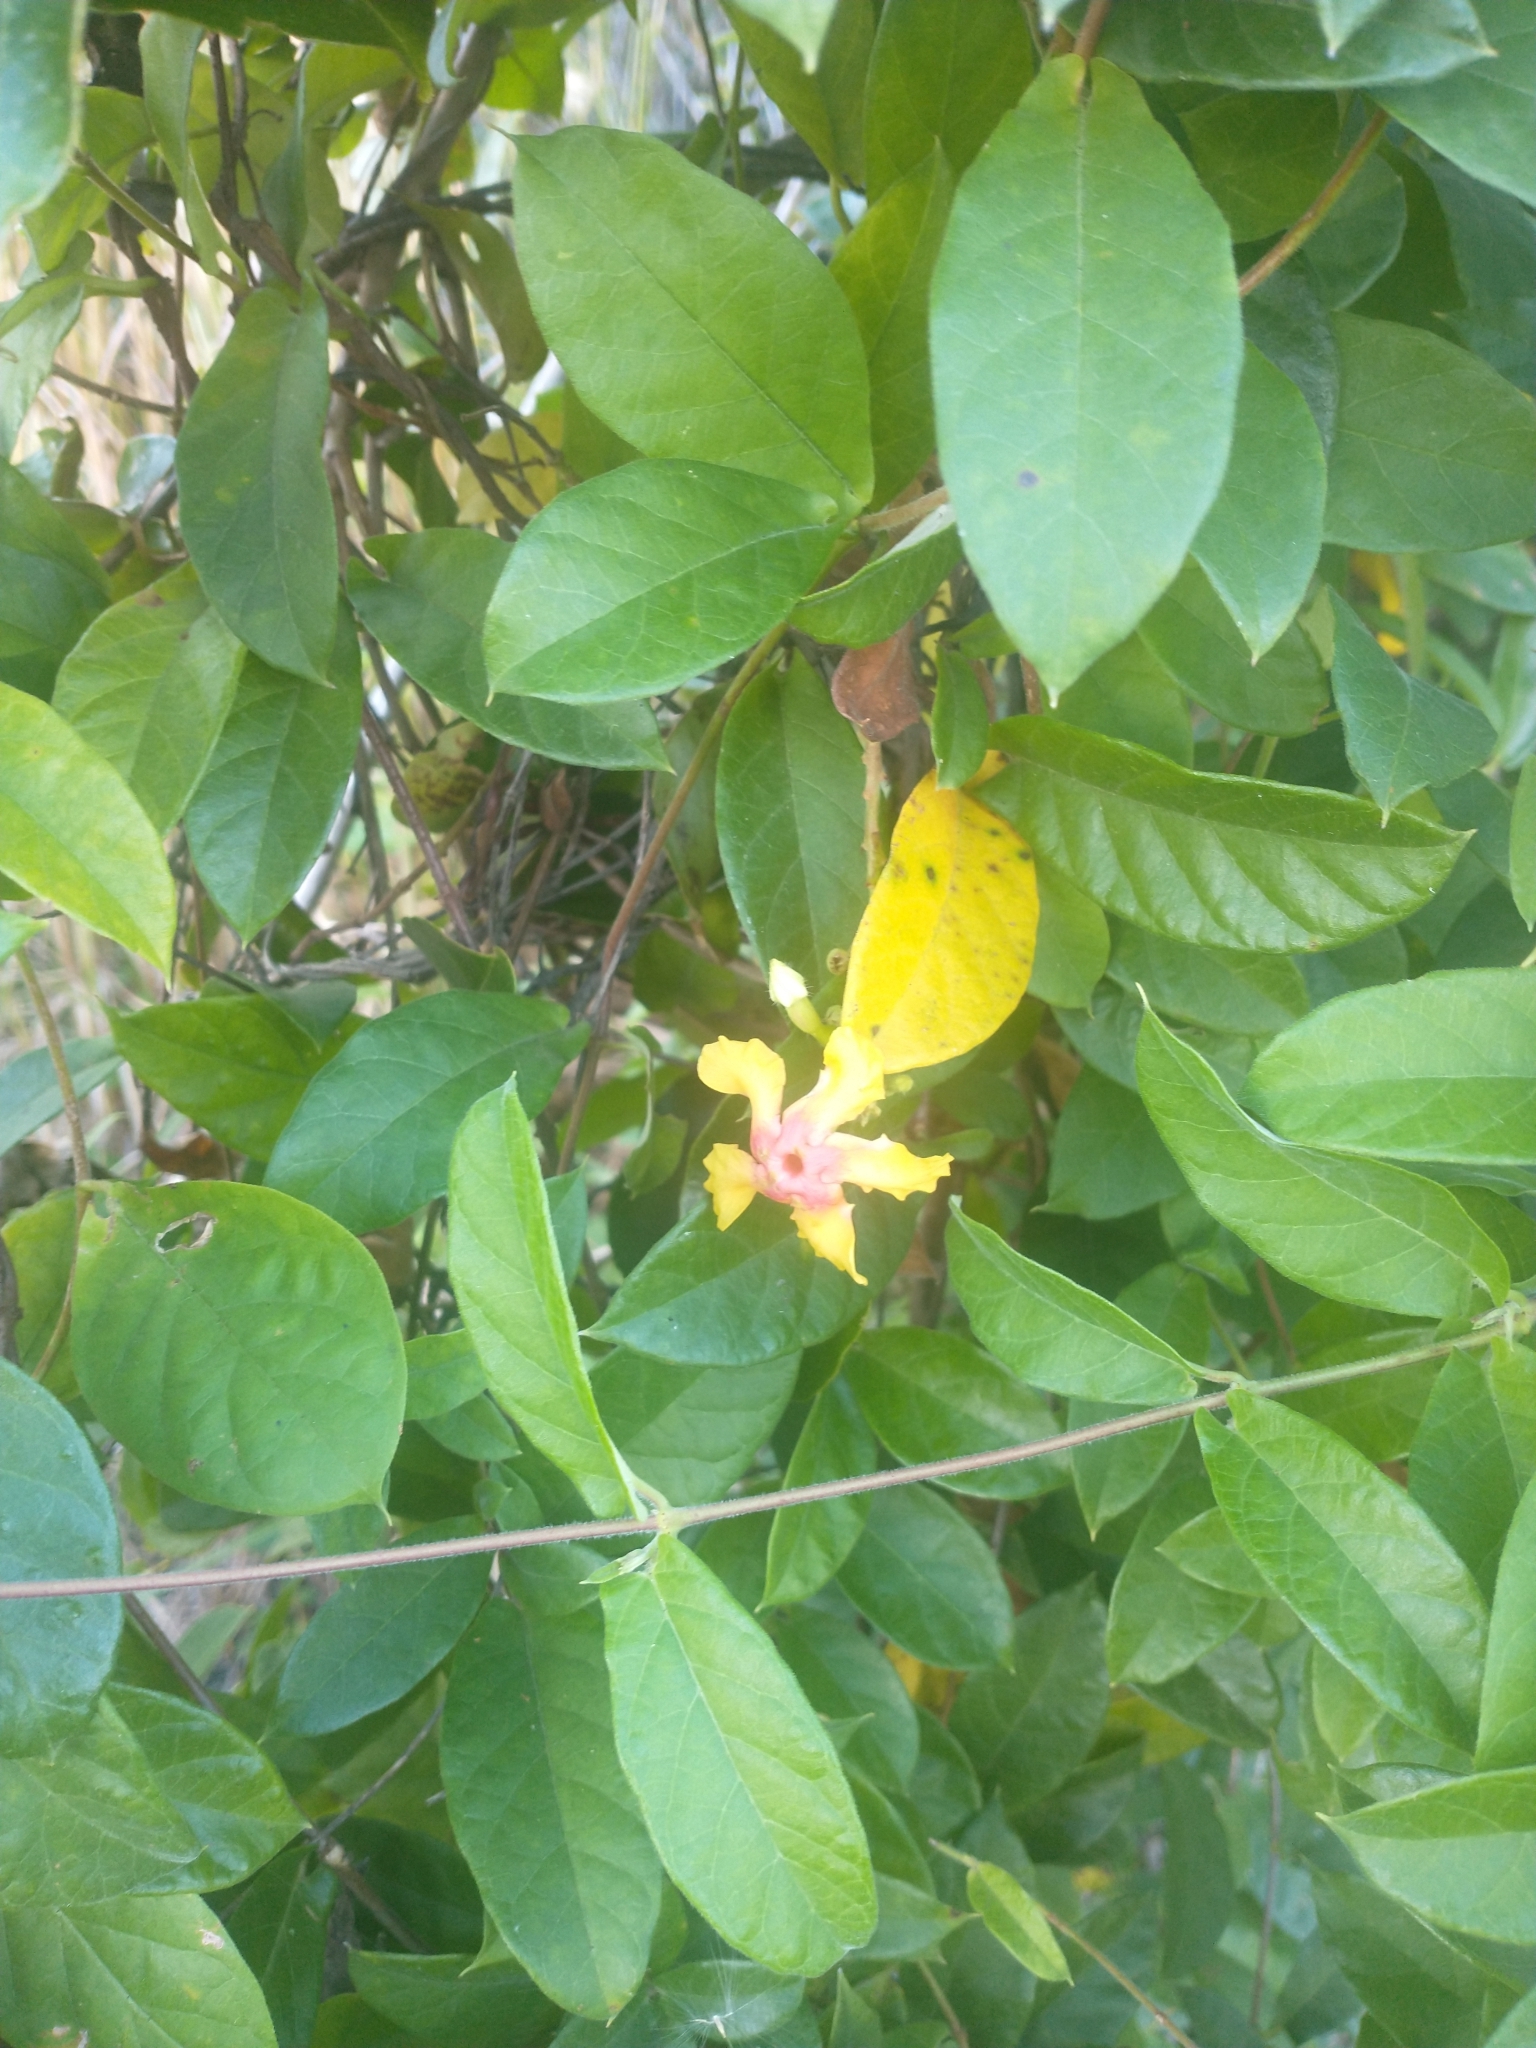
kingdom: Plantae
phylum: Tracheophyta
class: Magnoliopsida
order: Gentianales
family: Apocynaceae
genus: Mandevilla
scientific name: Mandevilla subsagittata
